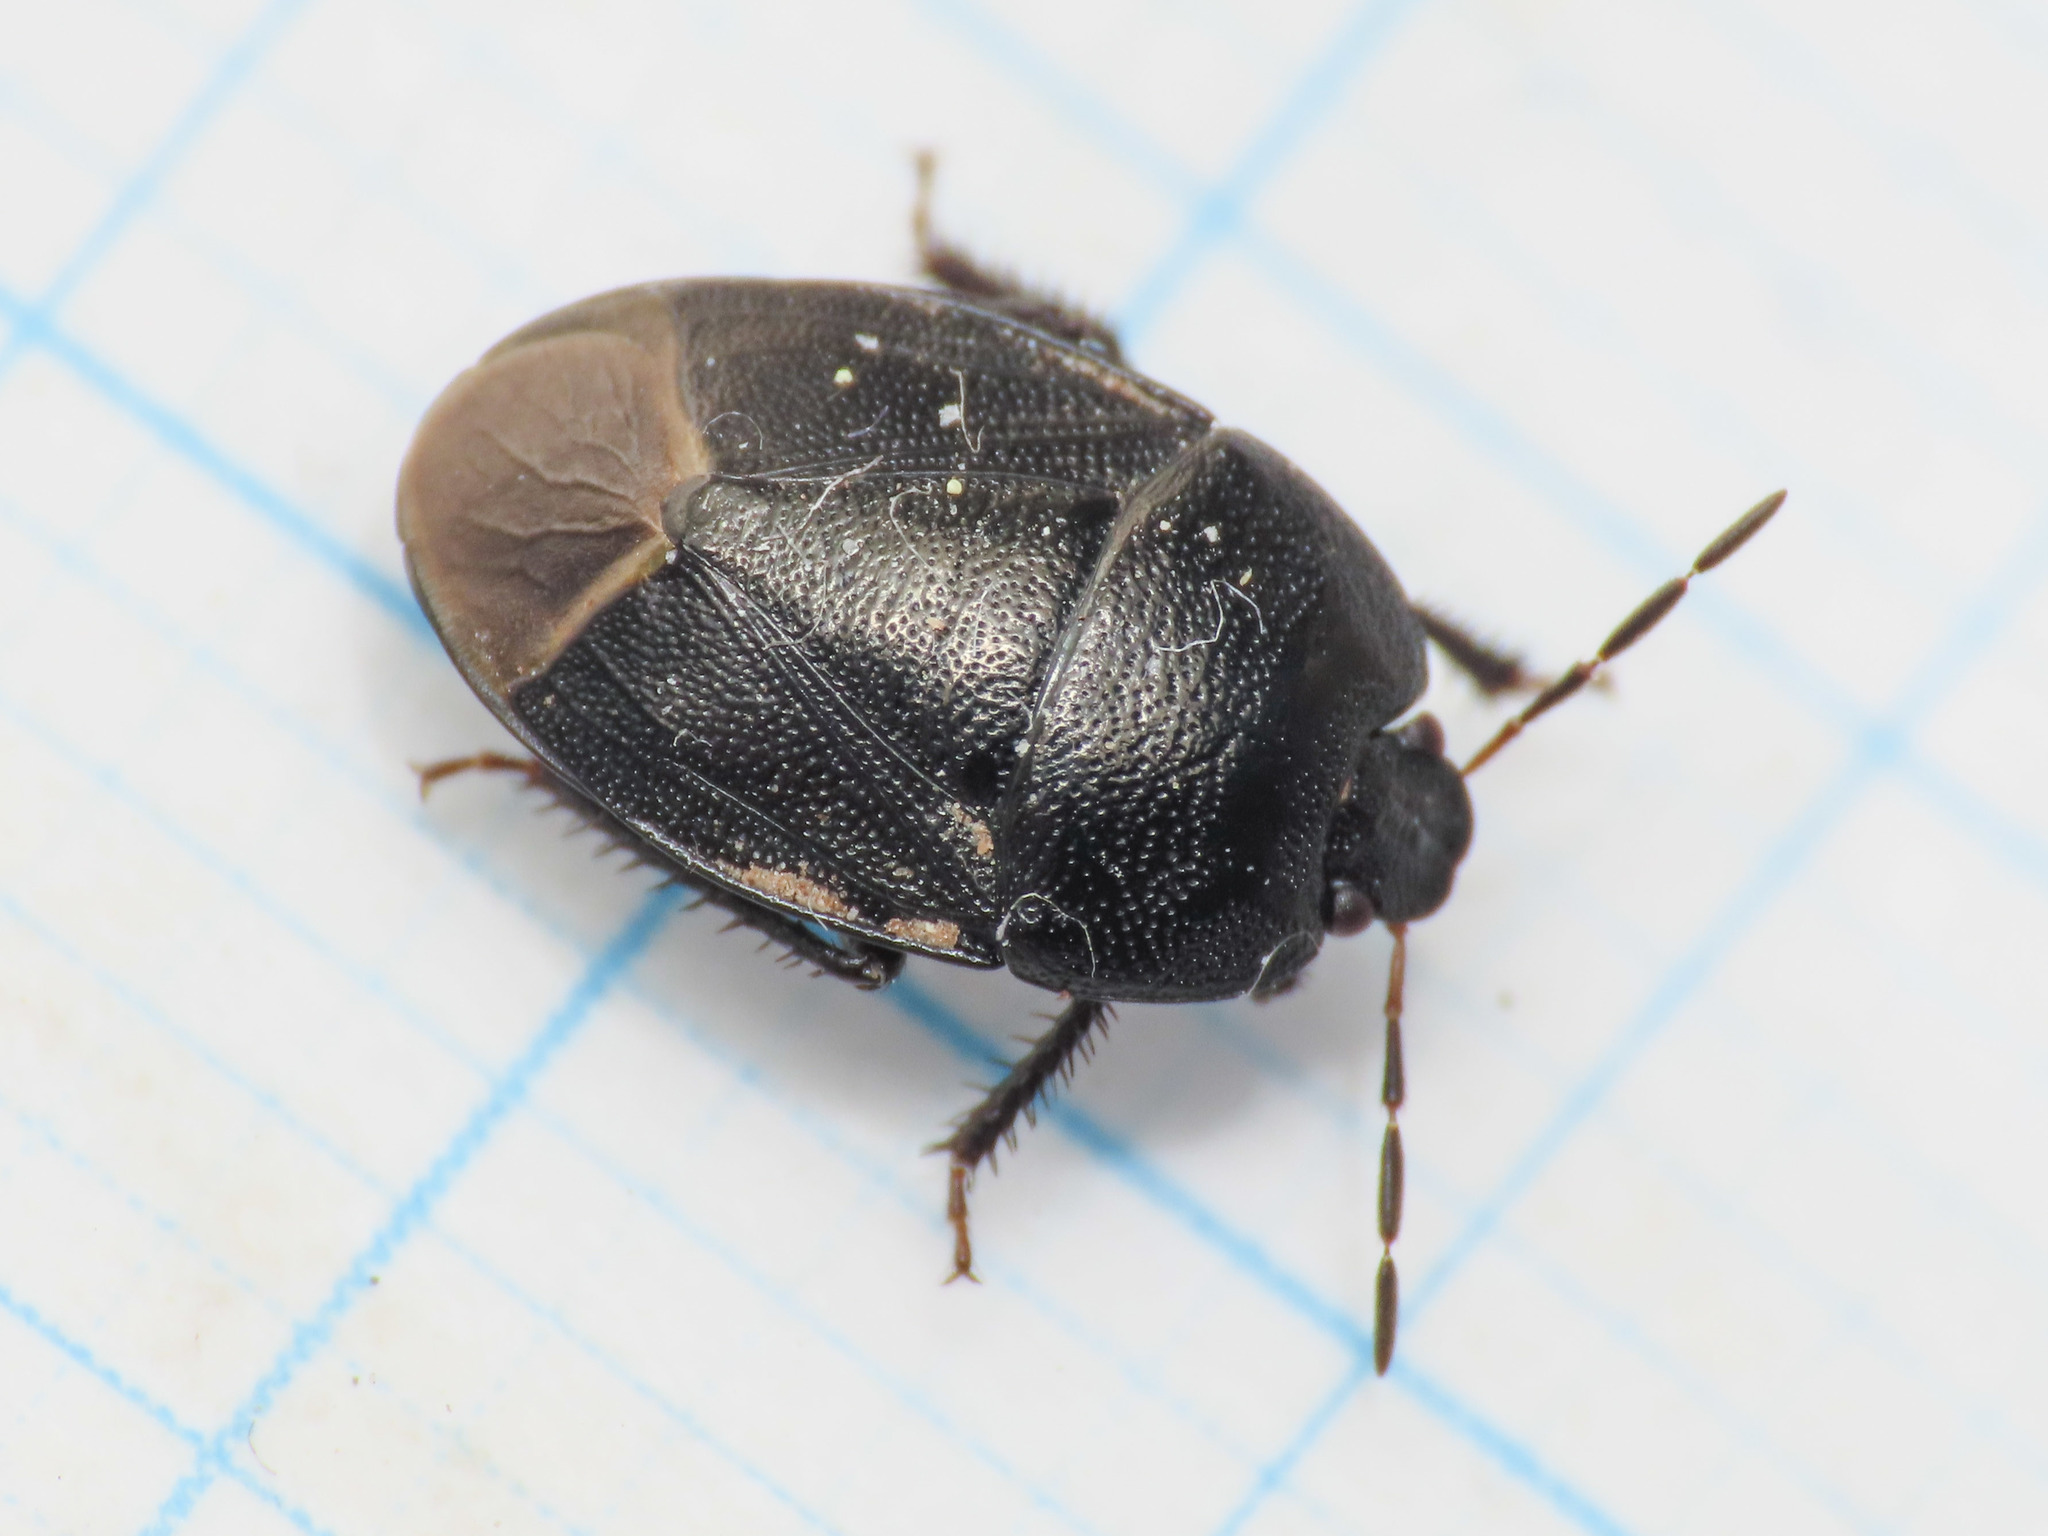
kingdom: Animalia
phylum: Arthropoda
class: Insecta
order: Hemiptera
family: Cydnidae
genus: Sehirus
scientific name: Sehirus luctuosus
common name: Forget-me-not shieldbug
